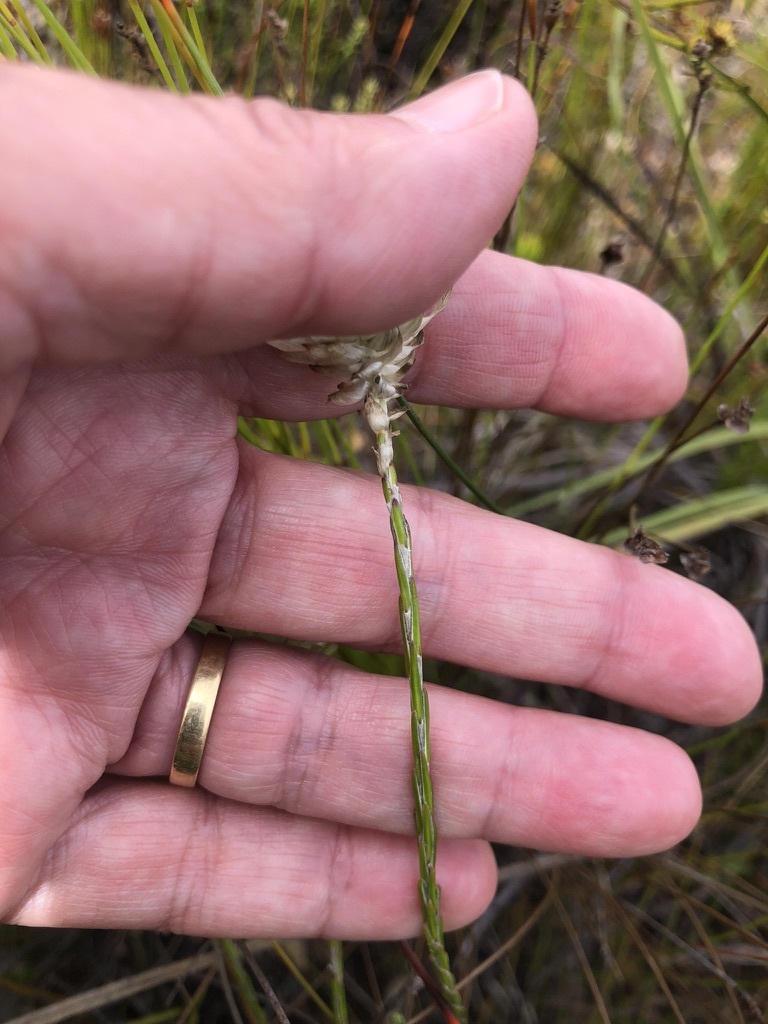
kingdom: Plantae
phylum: Tracheophyta
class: Magnoliopsida
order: Asterales
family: Asteraceae
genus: Edmondia
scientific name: Edmondia sesamoides
